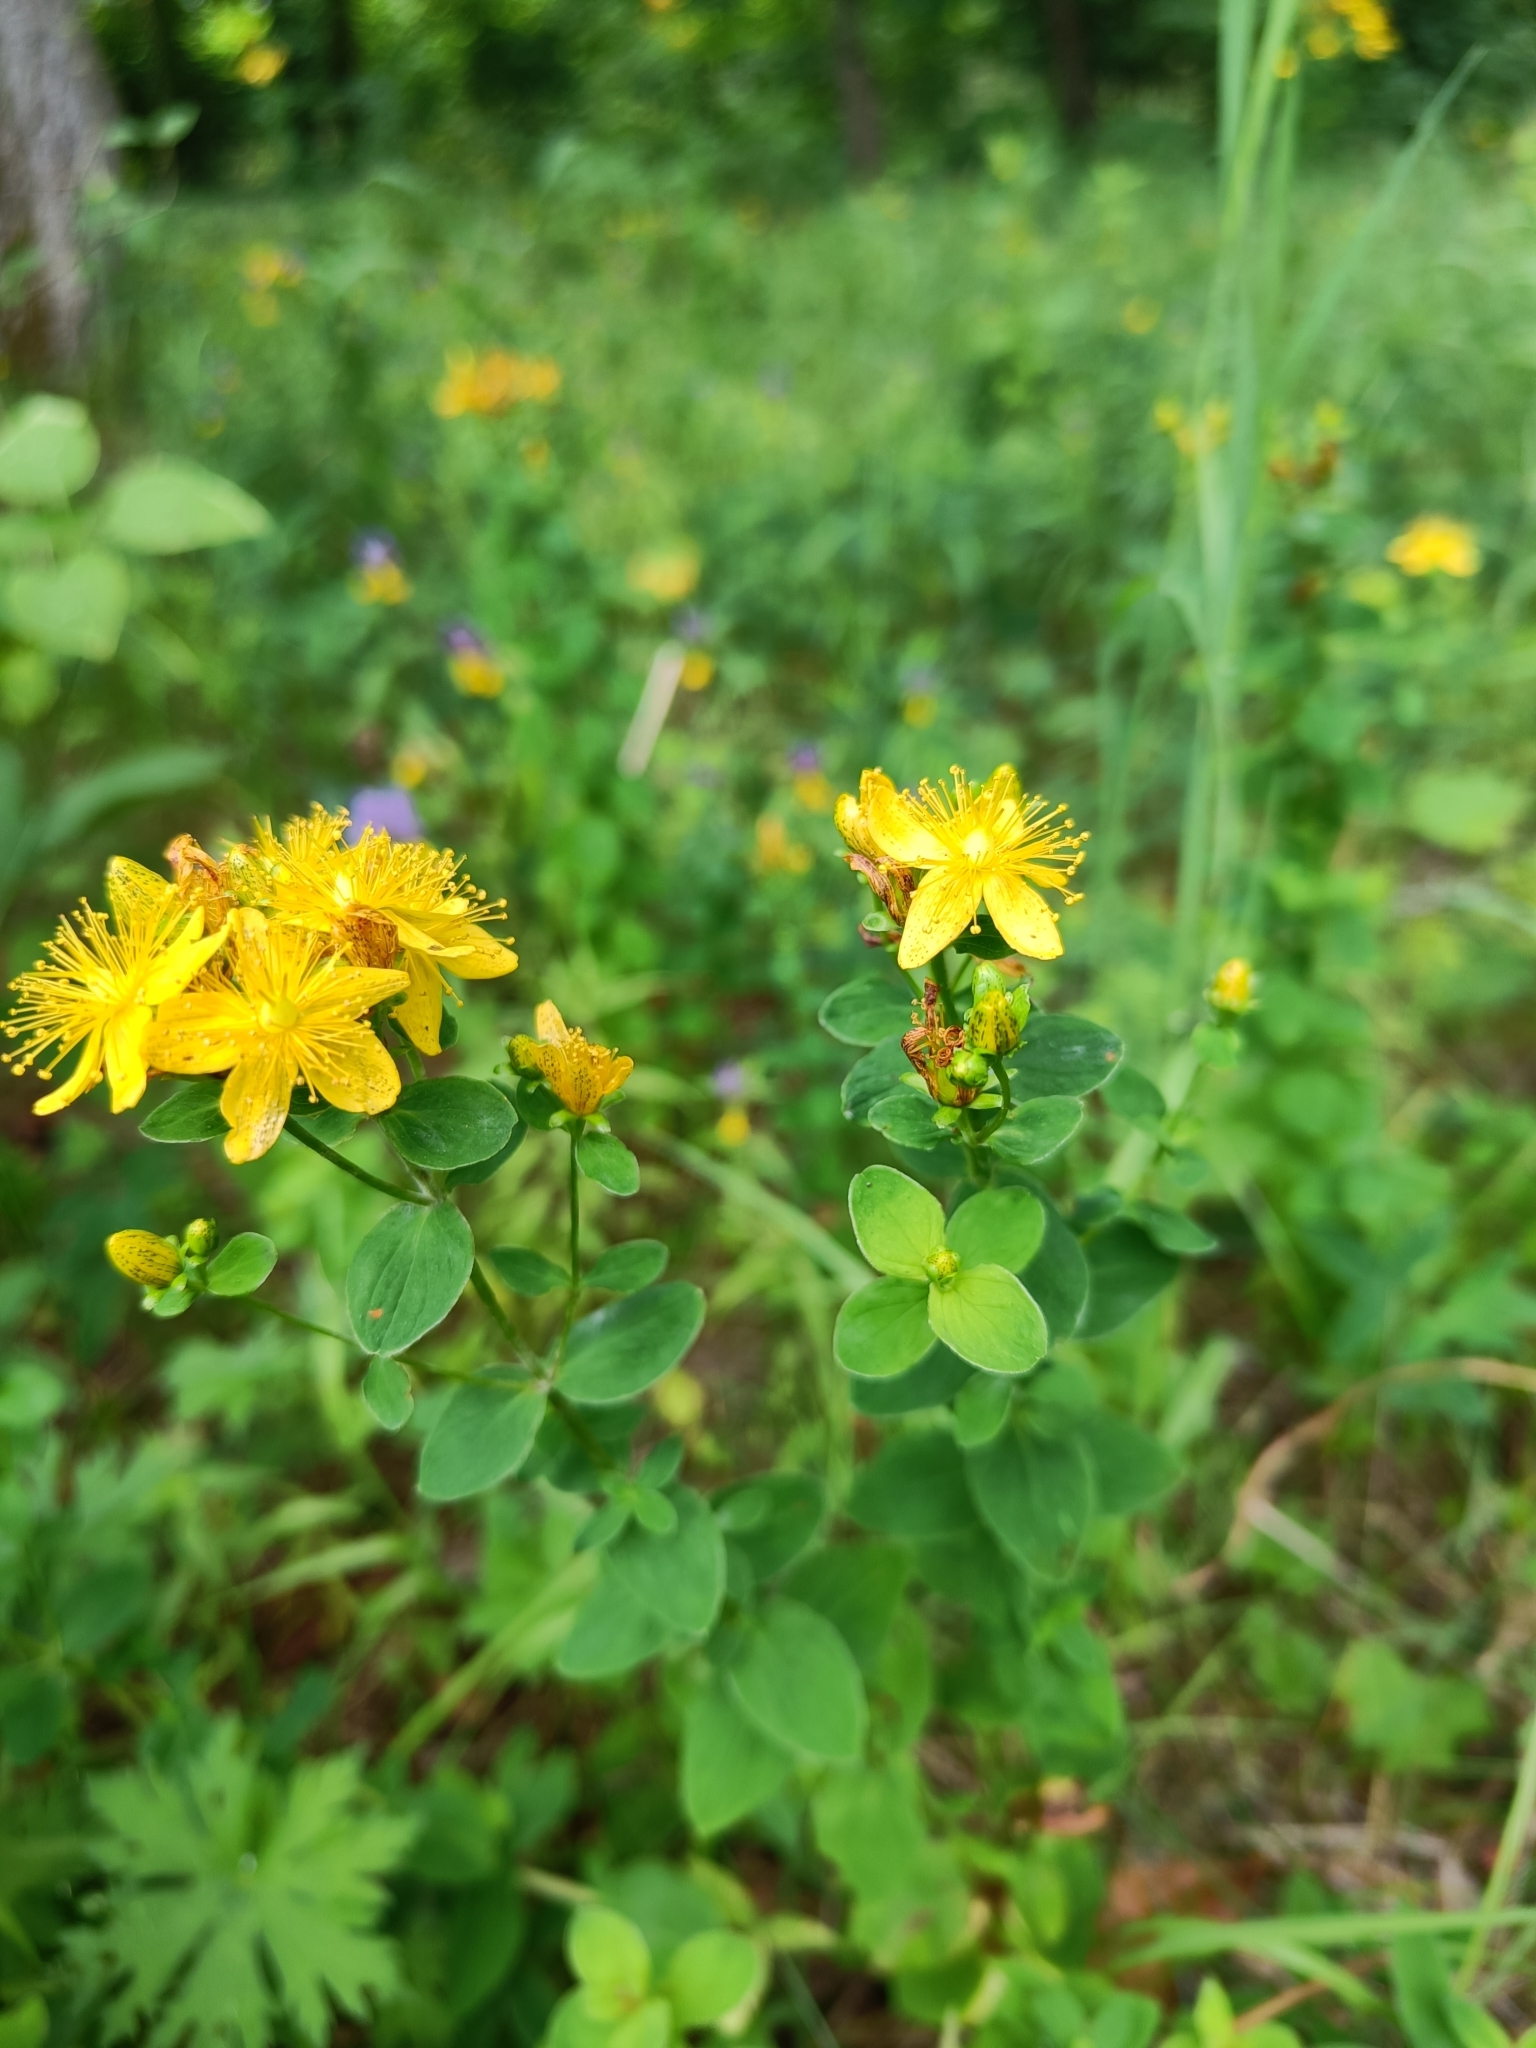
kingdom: Plantae
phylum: Tracheophyta
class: Magnoliopsida
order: Malpighiales
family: Hypericaceae
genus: Hypericum
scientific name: Hypericum maculatum
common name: Imperforate st. john's-wort
